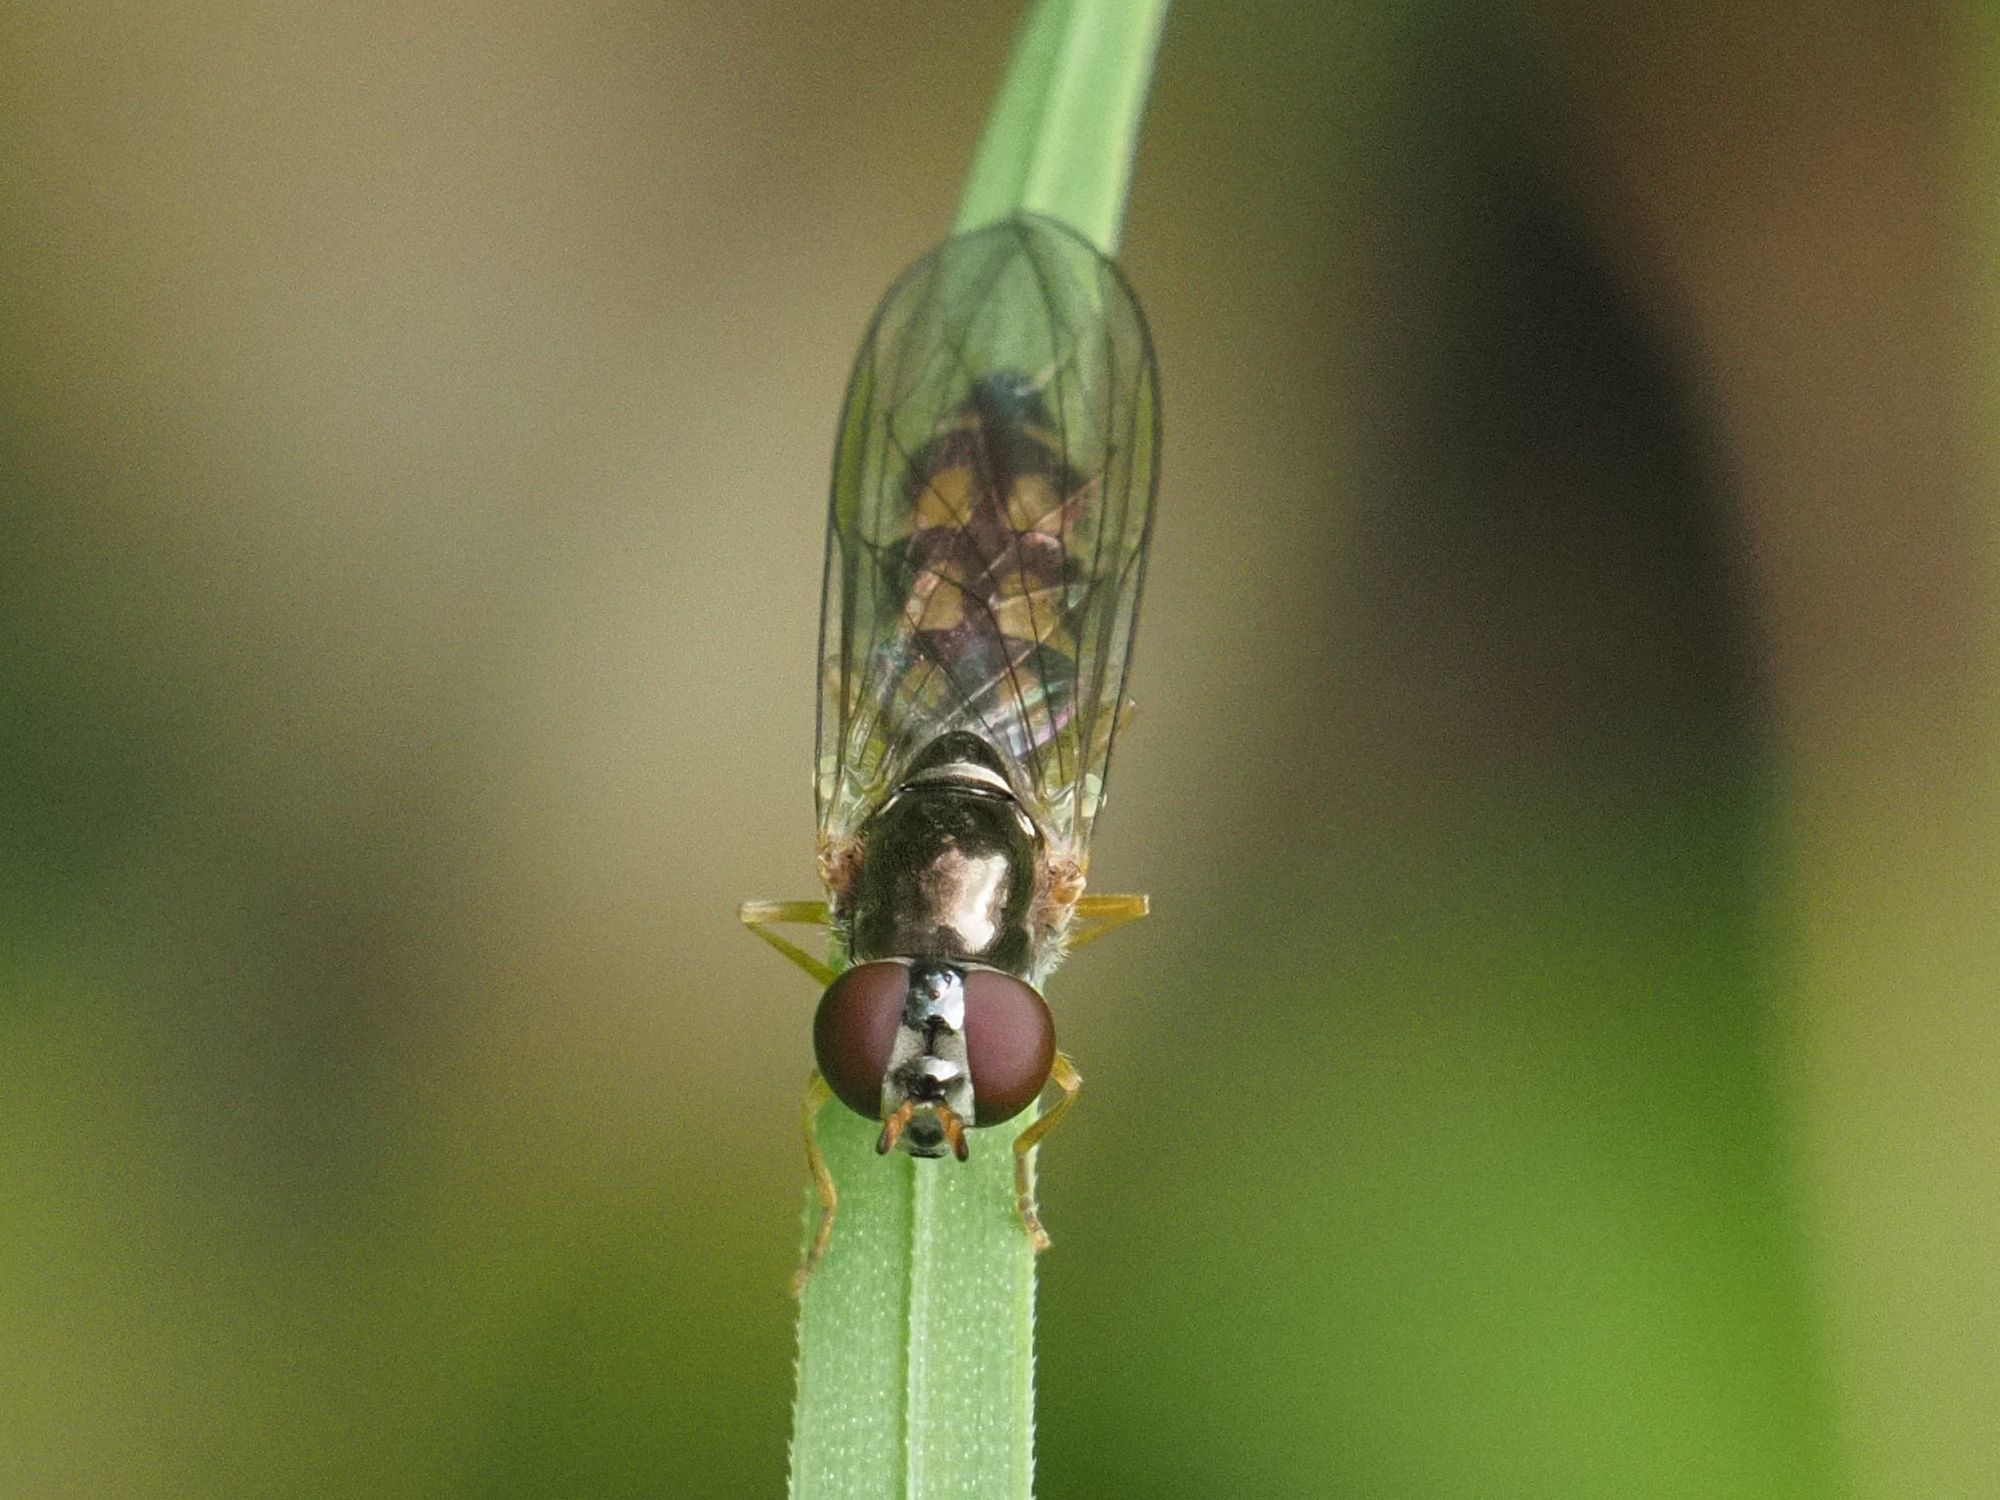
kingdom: Animalia
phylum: Arthropoda
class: Insecta
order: Diptera
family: Syrphidae
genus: Melanostoma
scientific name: Melanostoma scalare
